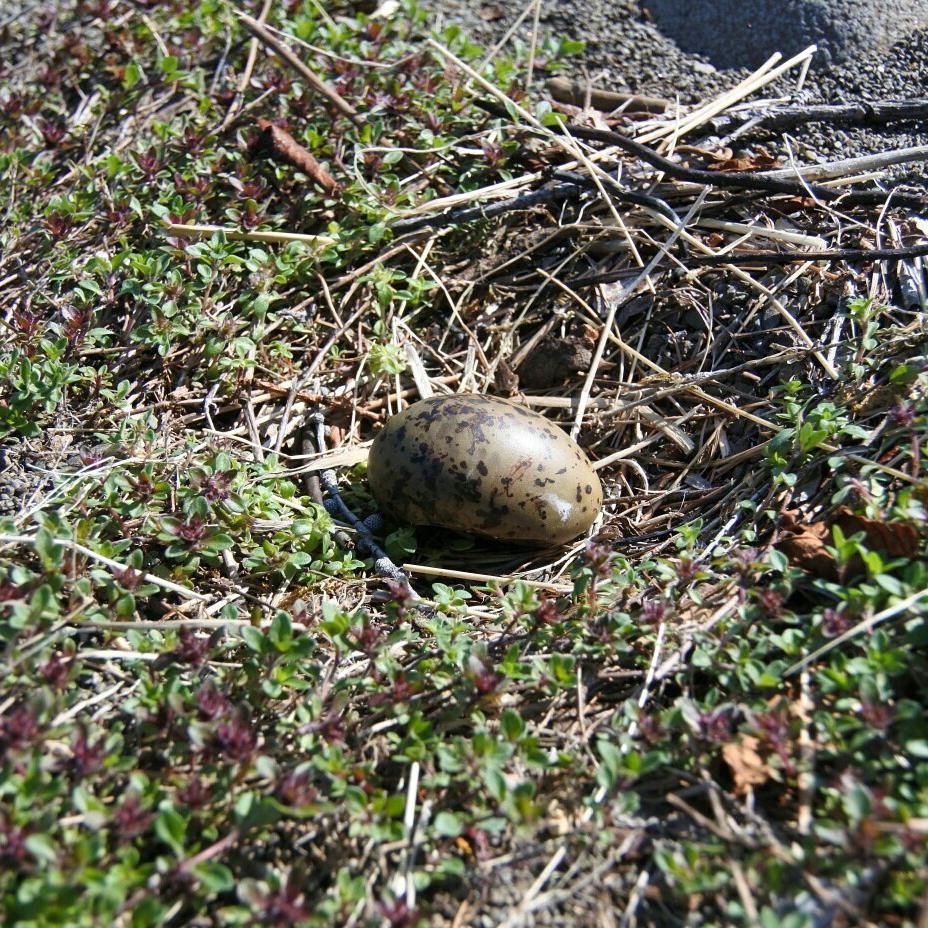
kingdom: Animalia
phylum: Chordata
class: Aves
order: Charadriiformes
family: Laridae
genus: Sterna
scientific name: Sterna paradisaea
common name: Arctic tern
